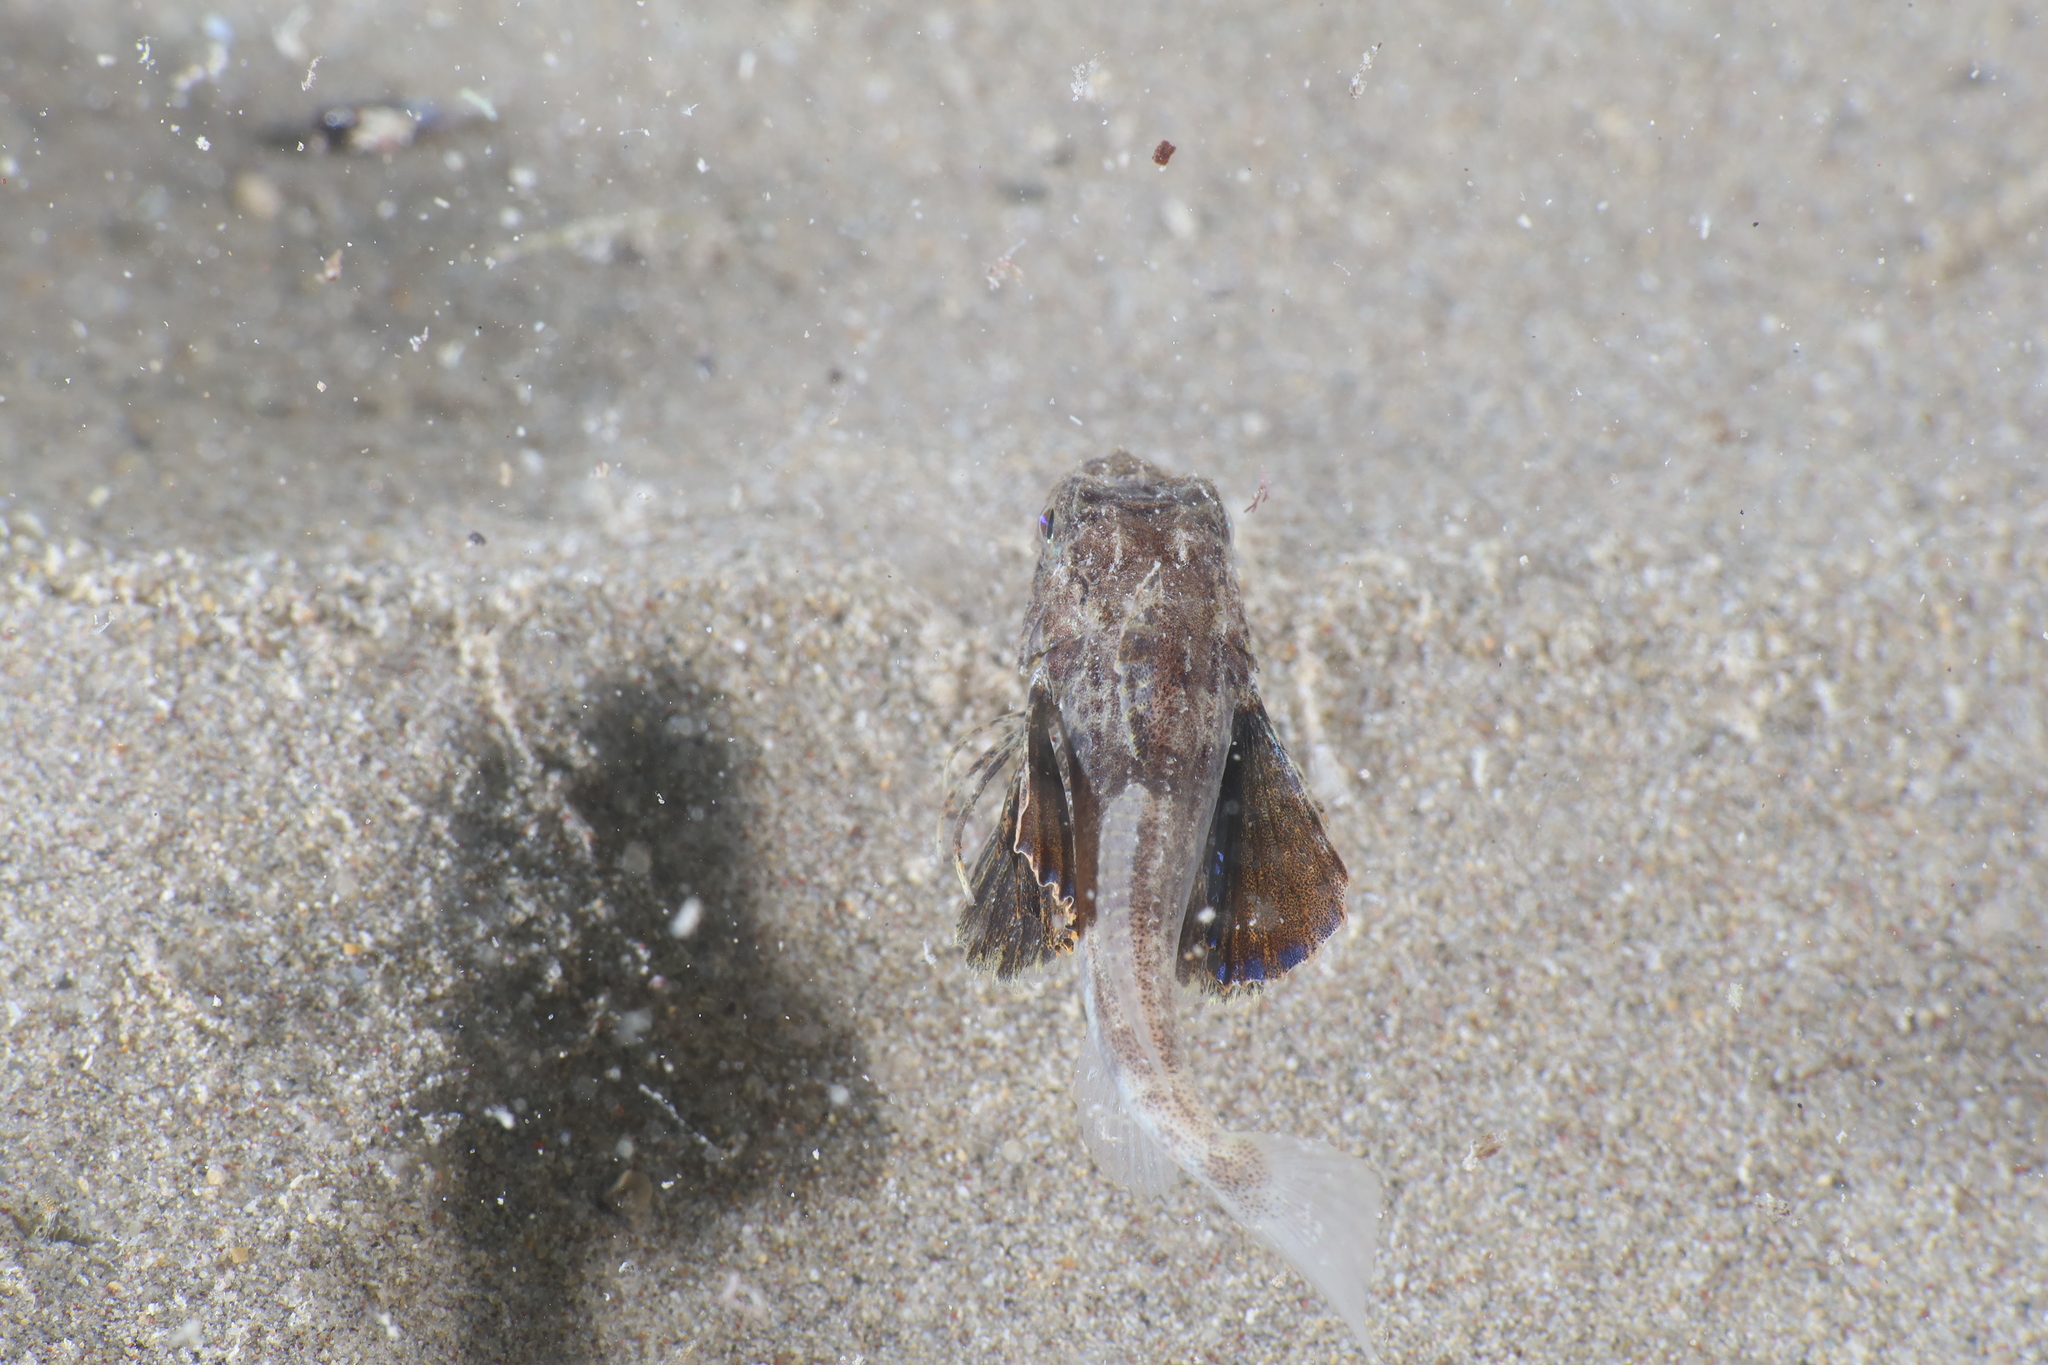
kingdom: Animalia
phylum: Chordata
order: Scorpaeniformes
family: Triglidae
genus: Chelidonichthys
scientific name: Chelidonichthys lucerna
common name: Tub gurnard
